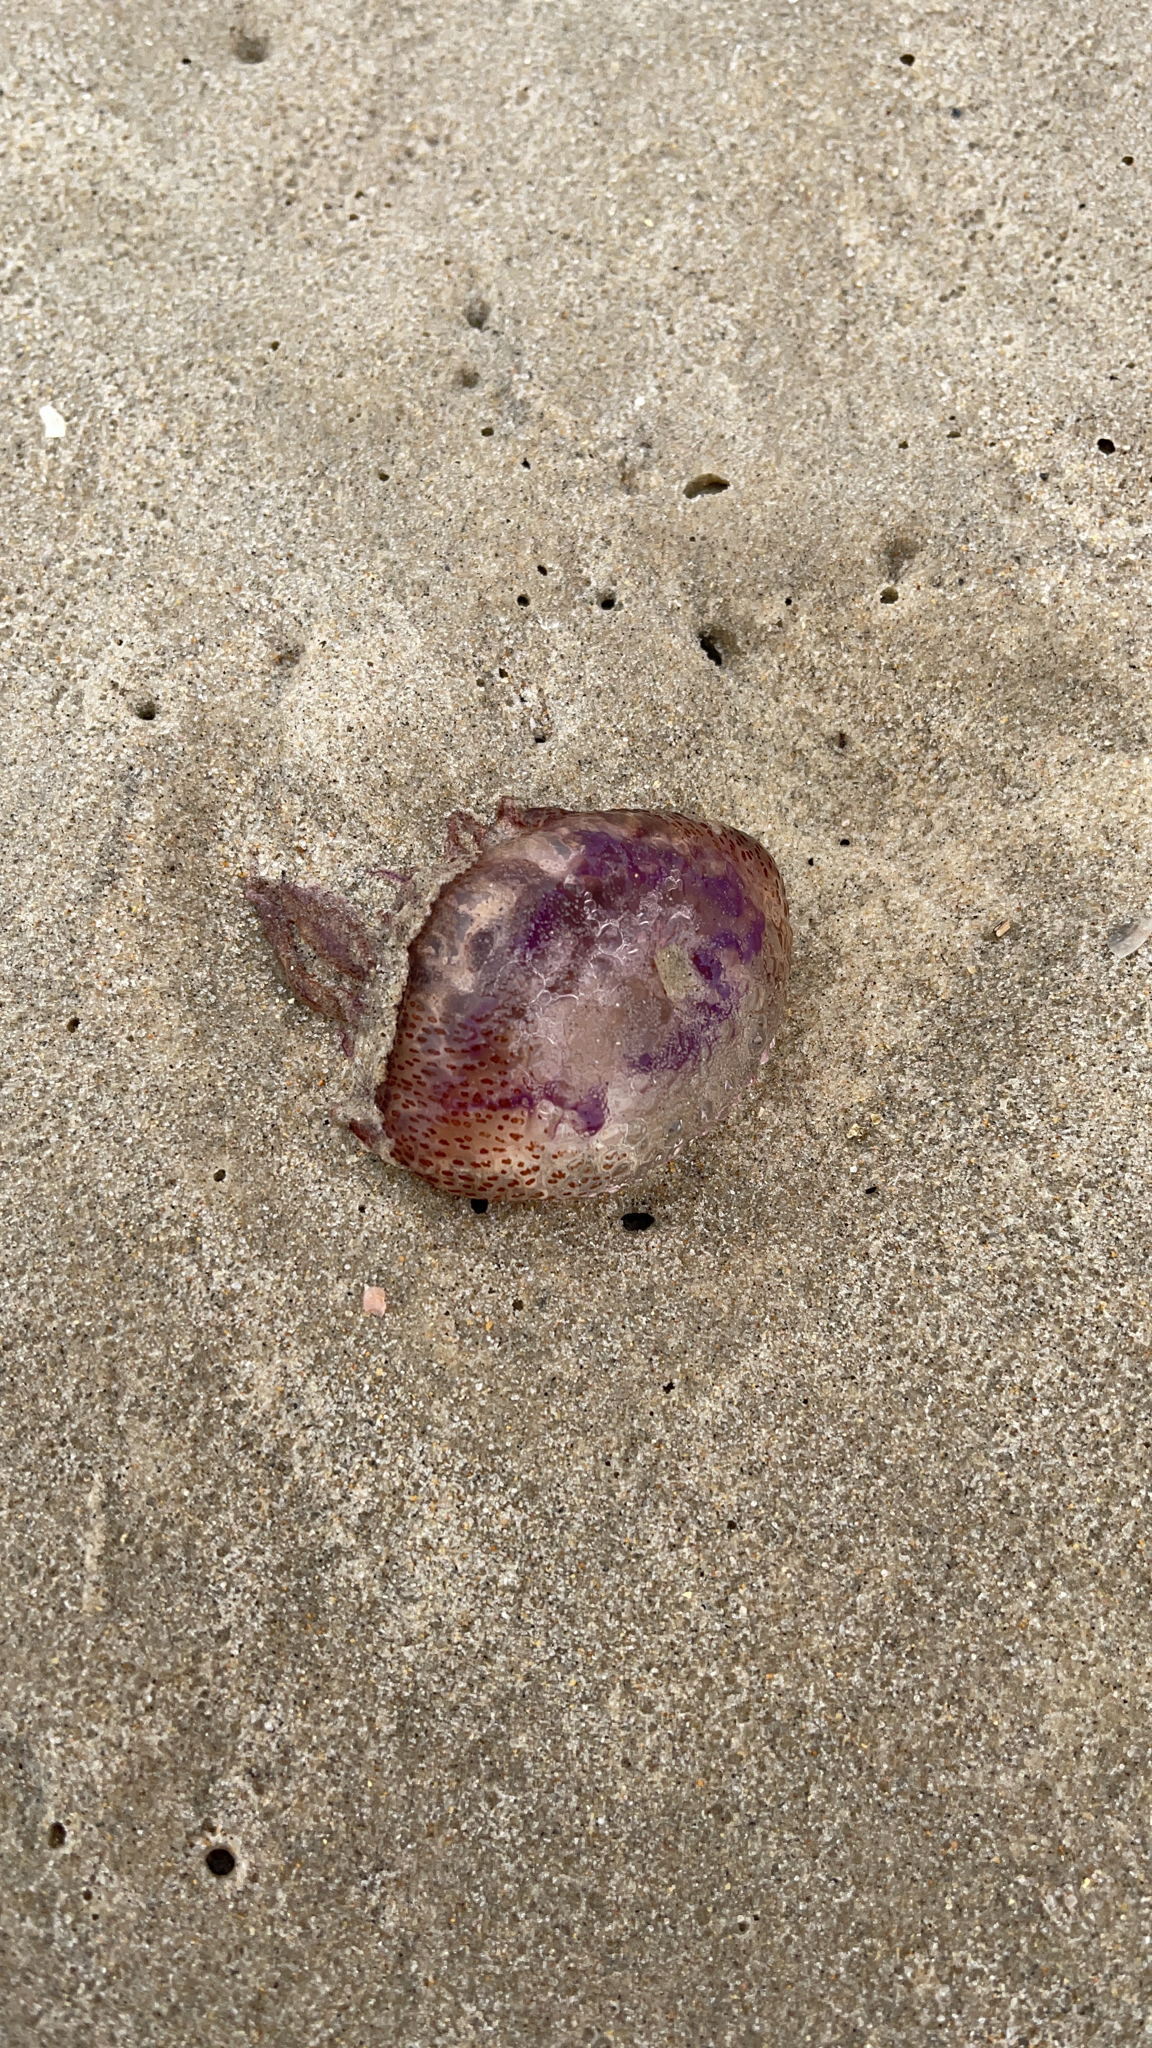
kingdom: Animalia
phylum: Cnidaria
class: Scyphozoa
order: Semaeostomeae
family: Pelagiidae
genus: Pelagia
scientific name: Pelagia noctiluca
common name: Mauve stinger
